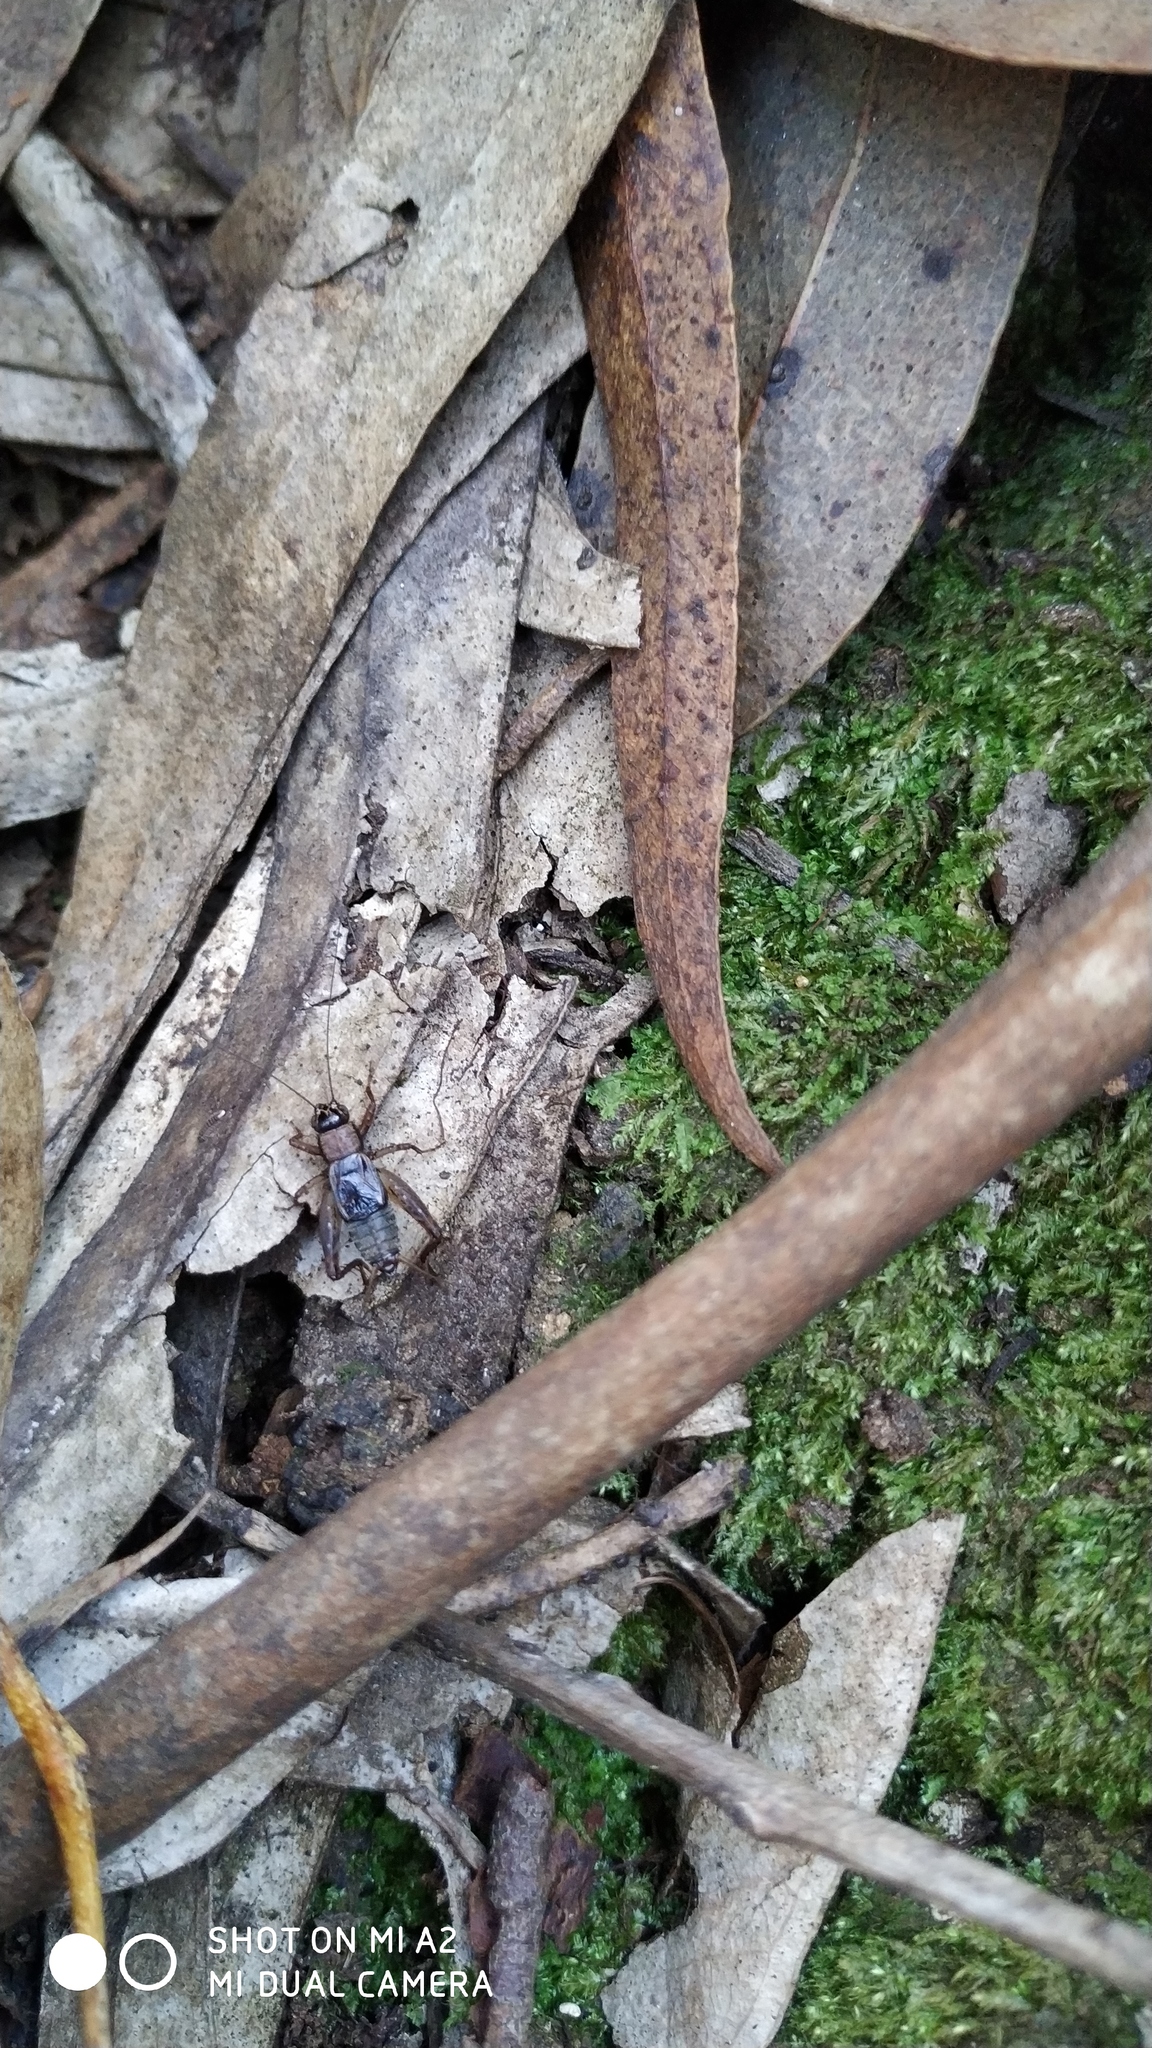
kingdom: Animalia
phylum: Arthropoda
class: Insecta
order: Orthoptera
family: Trigonidiidae
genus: Nemobius
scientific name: Nemobius sylvestris
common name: Wood-cricket
